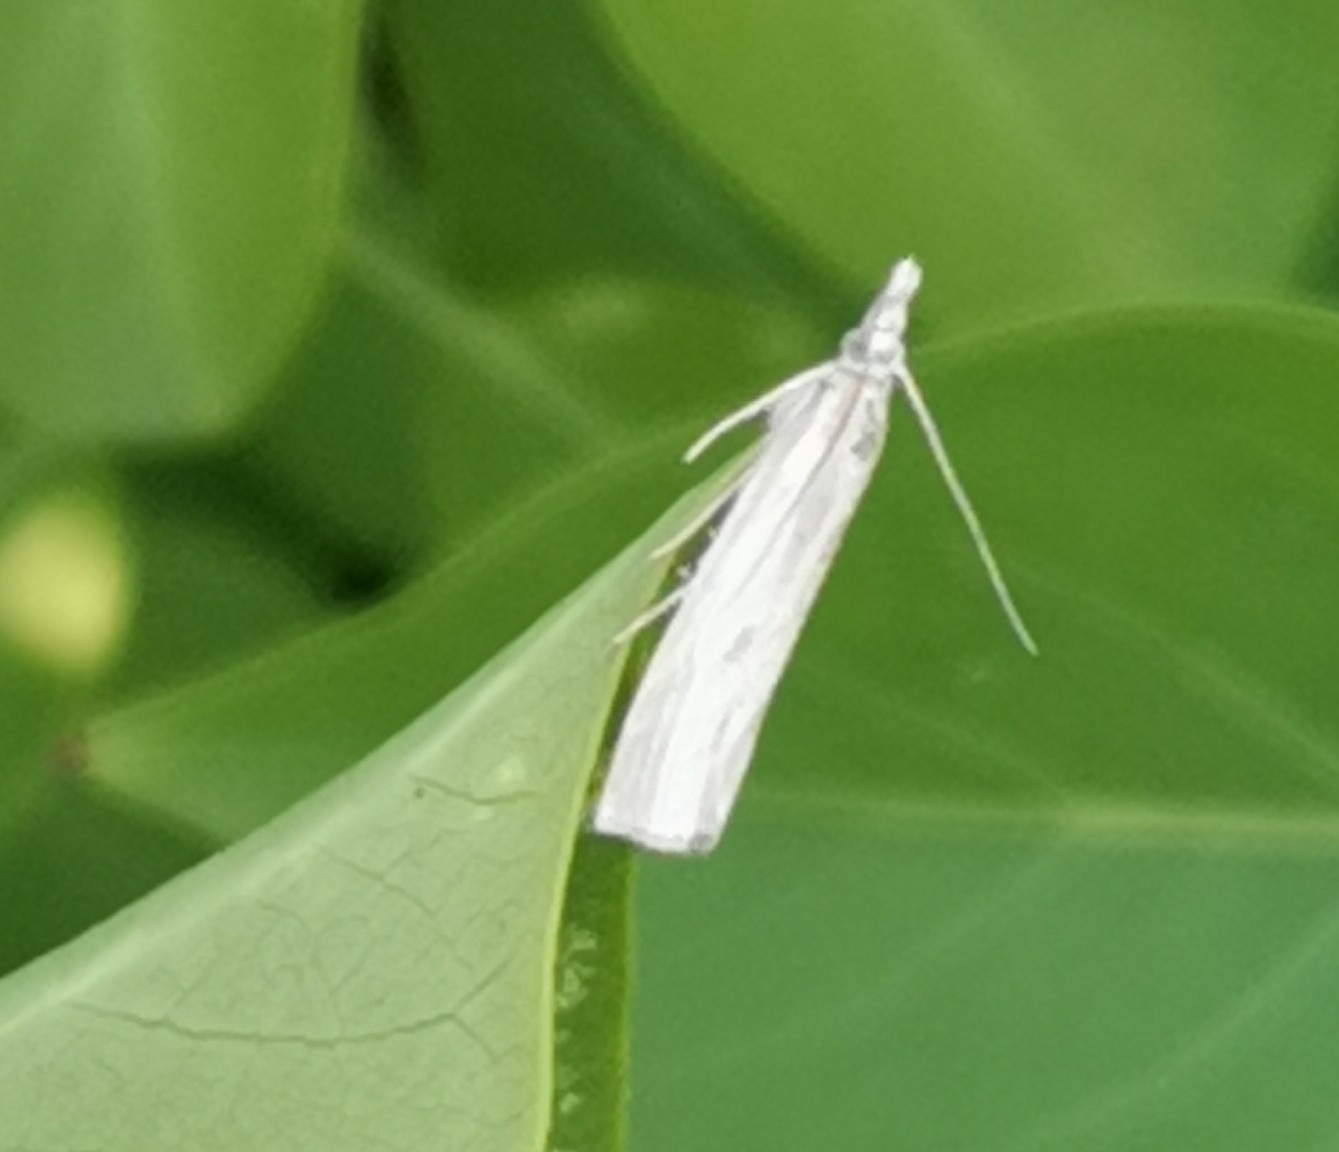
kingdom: Animalia
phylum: Arthropoda
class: Insecta
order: Lepidoptera
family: Crambidae
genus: Crambus
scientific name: Crambus perlellus
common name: Yellow satin veneer
